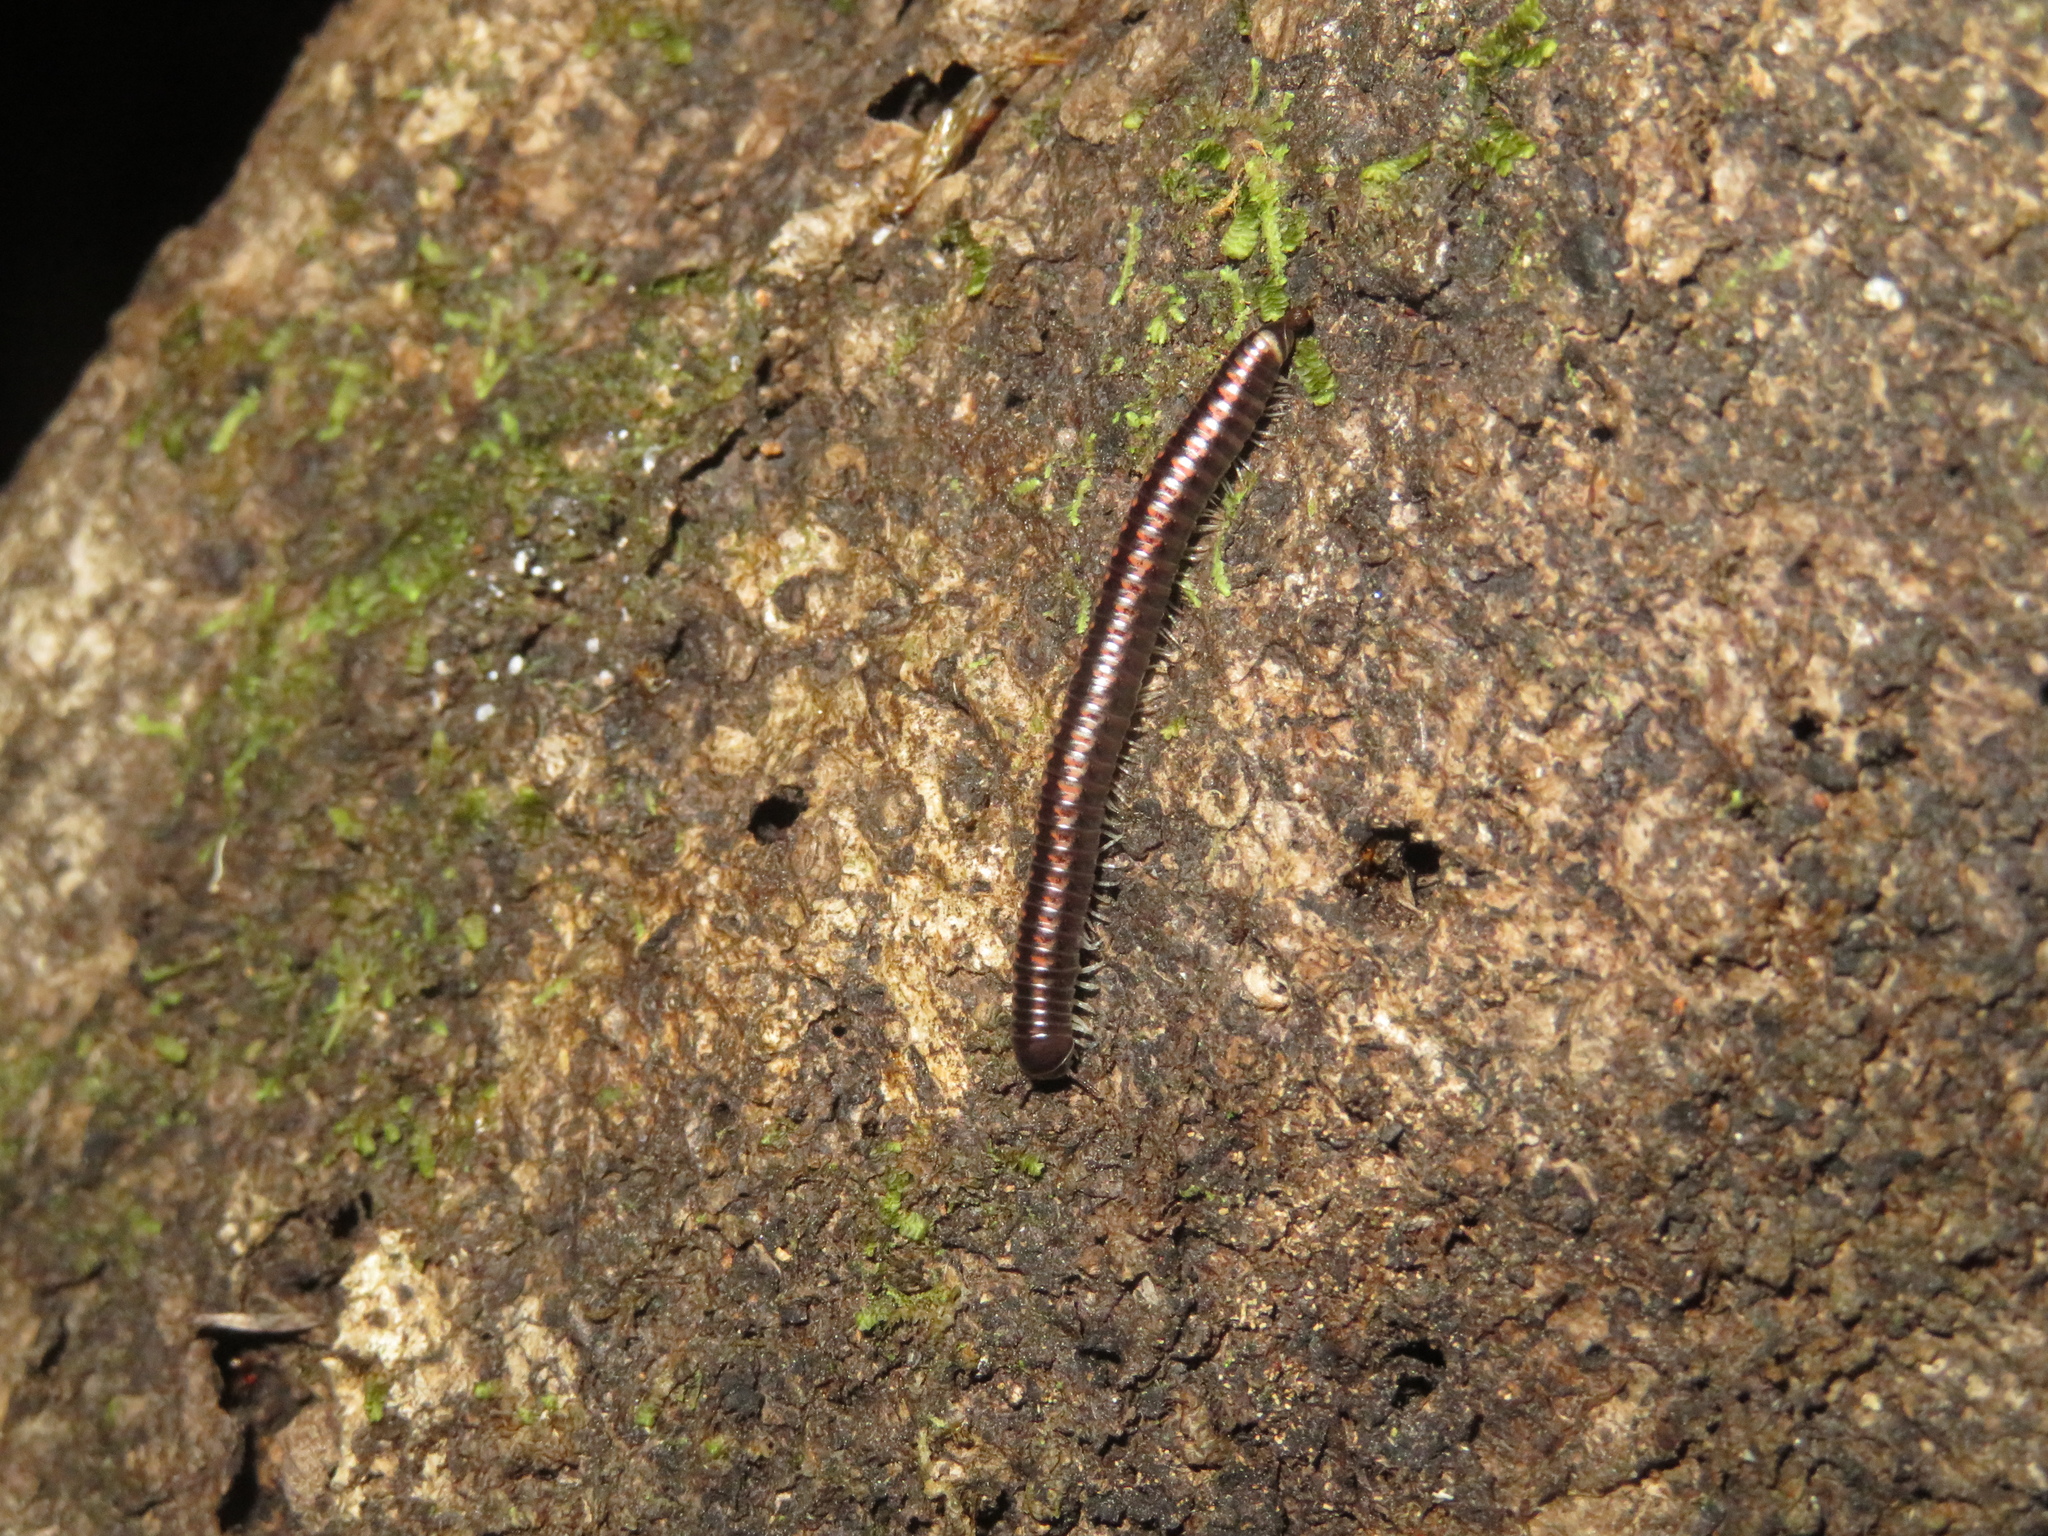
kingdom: Animalia
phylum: Arthropoda
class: Diplopoda
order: Spirobolida
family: Spirobolellidae
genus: Spirobolellus
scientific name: Spirobolellus antipodarum
